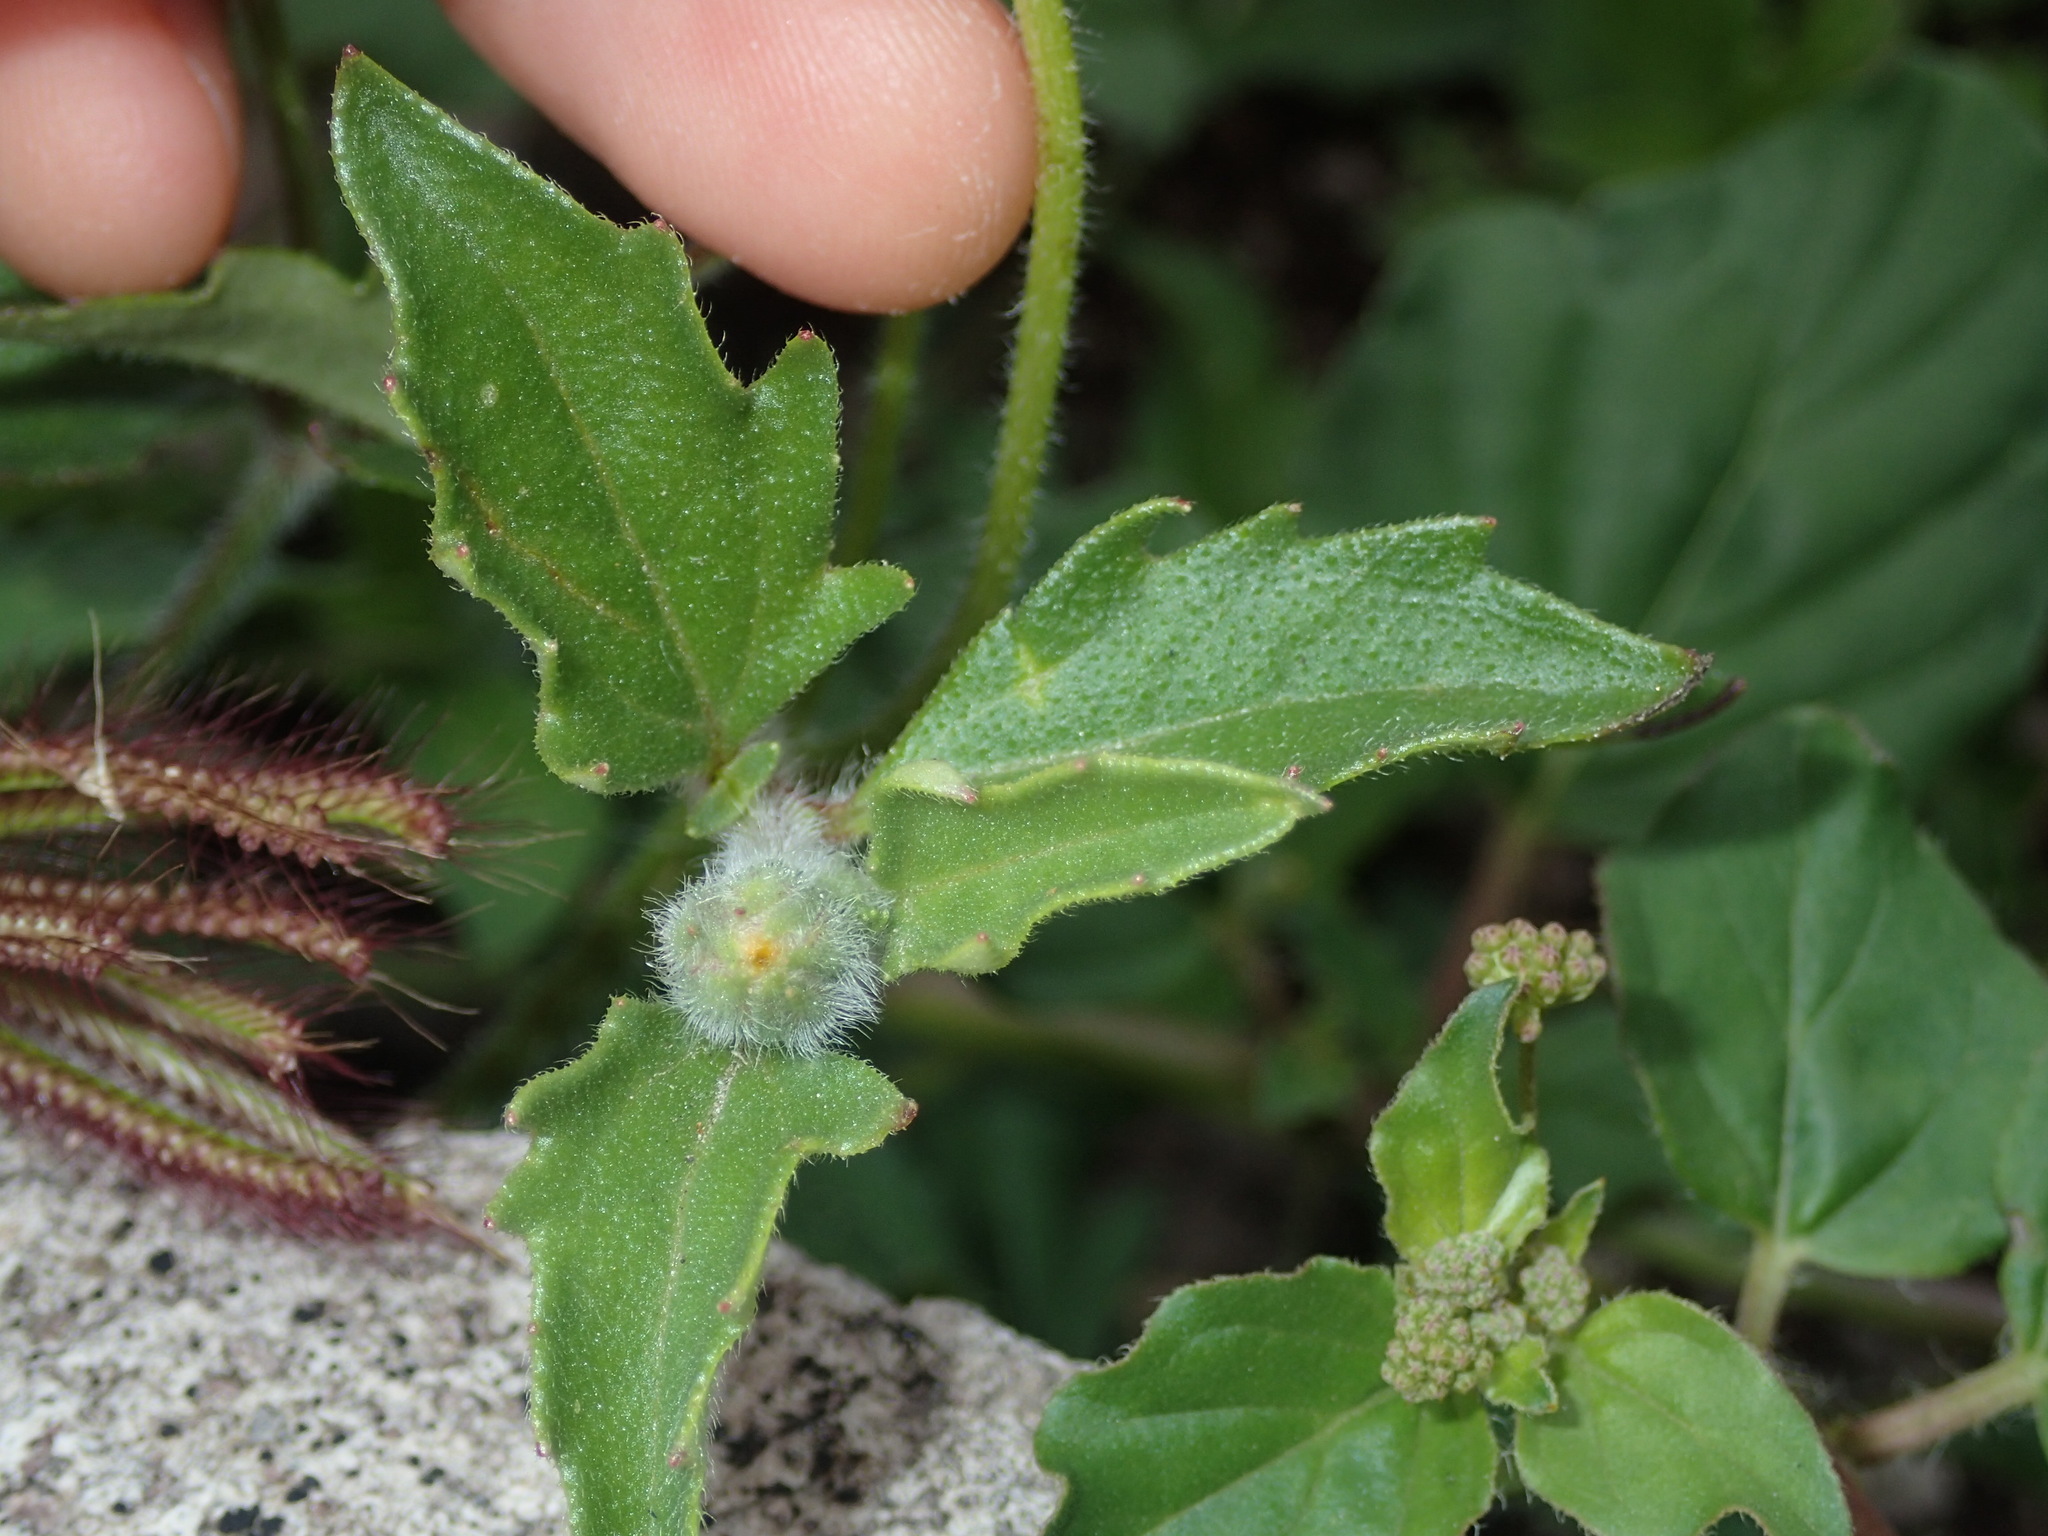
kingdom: Plantae
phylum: Tracheophyta
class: Magnoliopsida
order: Asterales
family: Asteraceae
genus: Tridax
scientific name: Tridax procumbens
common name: Coatbuttons
